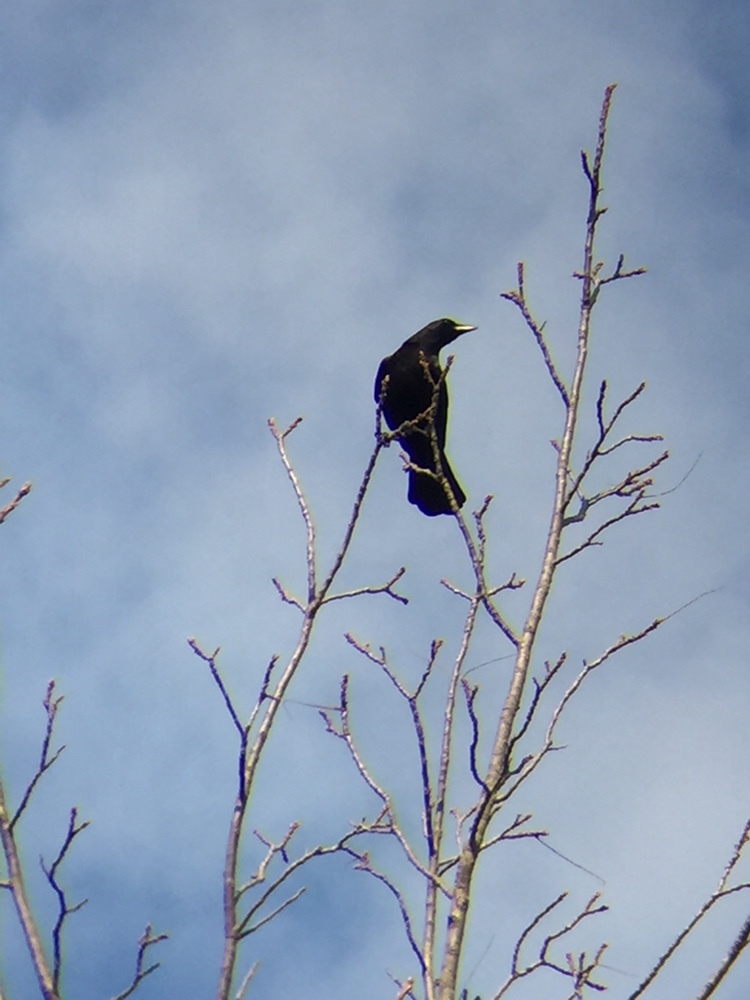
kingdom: Animalia
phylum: Chordata
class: Aves
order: Passeriformes
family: Corvidae
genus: Corvus
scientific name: Corvus brachyrhynchos
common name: American crow
